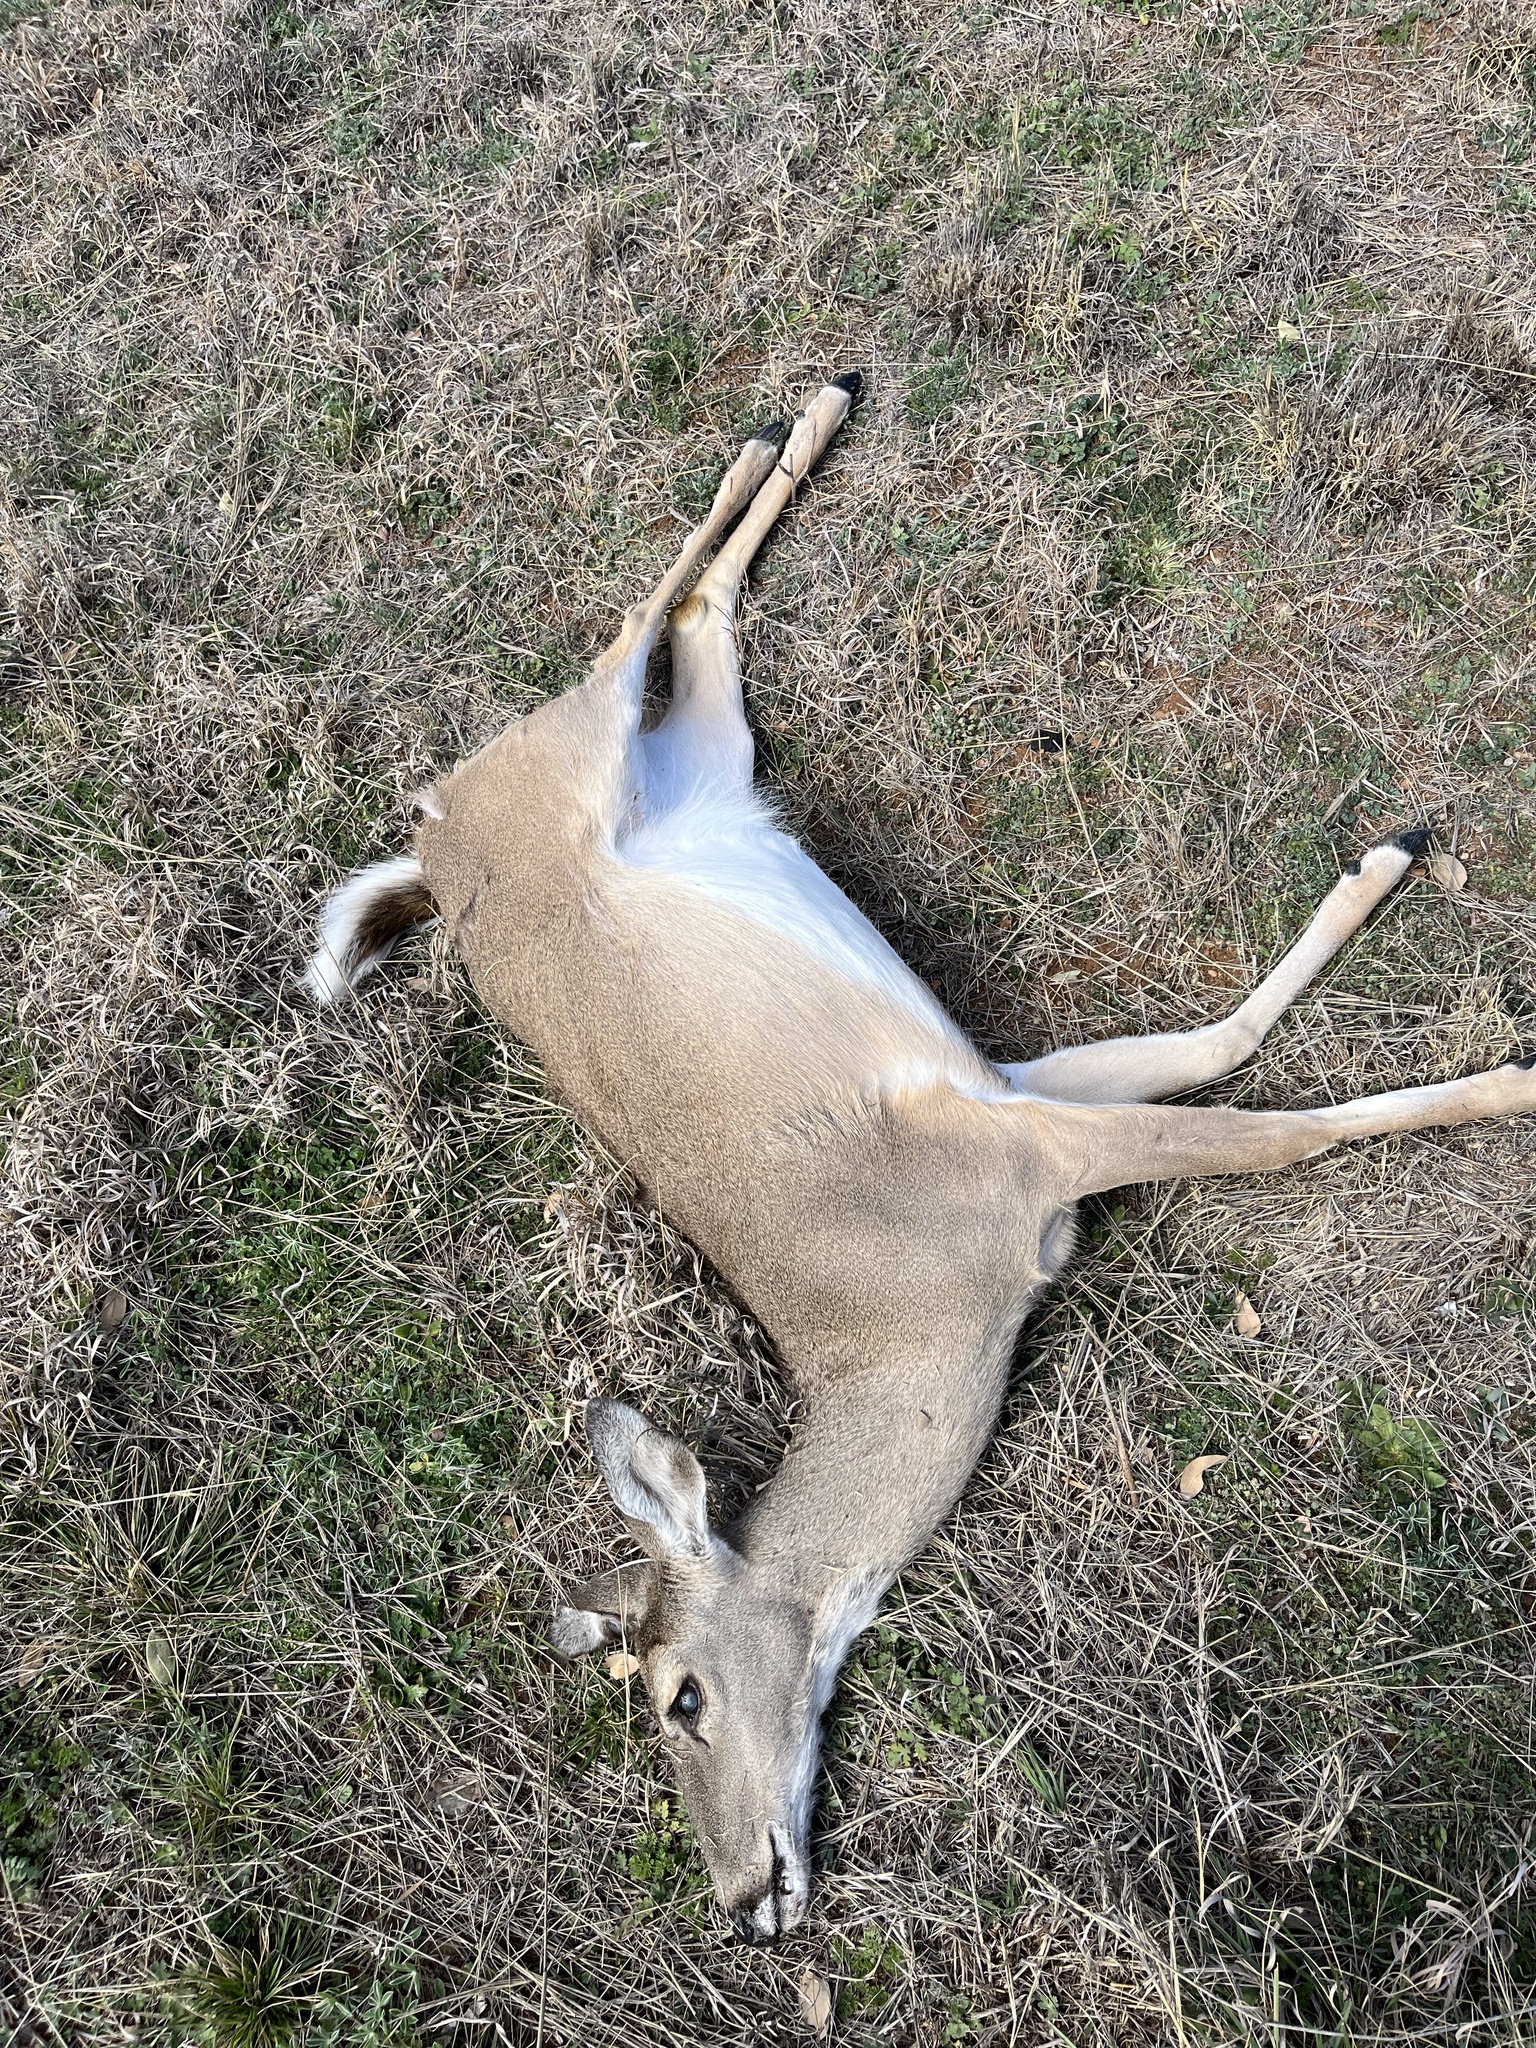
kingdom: Animalia
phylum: Chordata
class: Mammalia
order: Artiodactyla
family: Cervidae
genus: Odocoileus
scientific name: Odocoileus virginianus
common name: White-tailed deer
